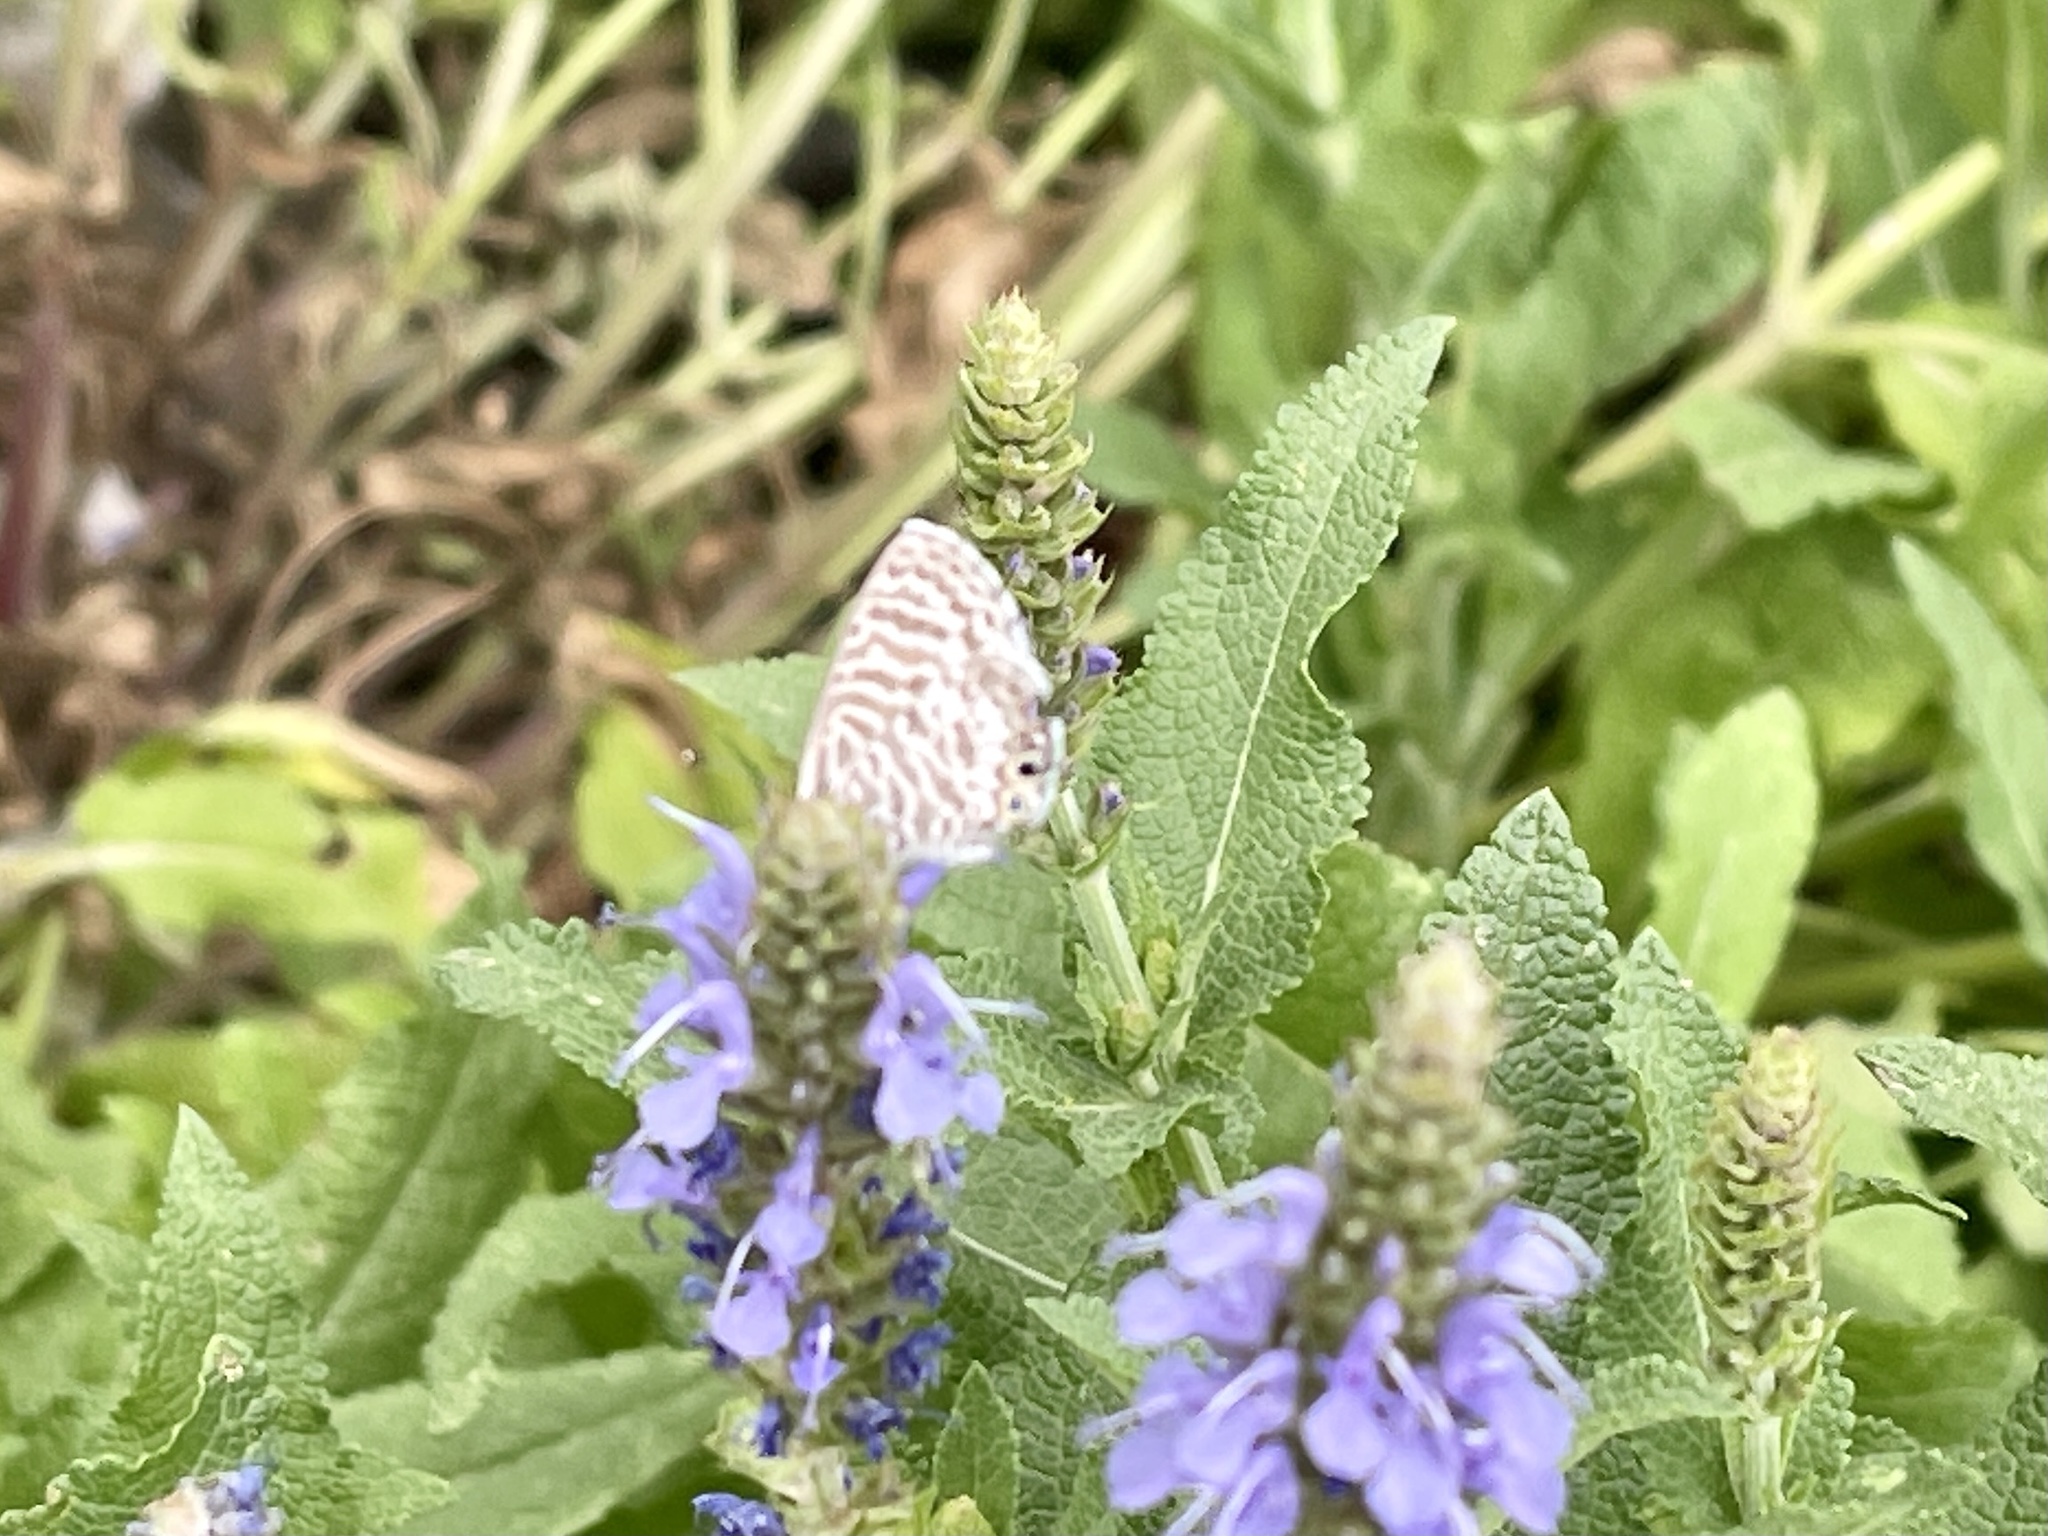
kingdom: Animalia
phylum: Arthropoda
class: Insecta
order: Lepidoptera
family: Lycaenidae
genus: Leptotes
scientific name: Leptotes marina
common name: Marine blue
